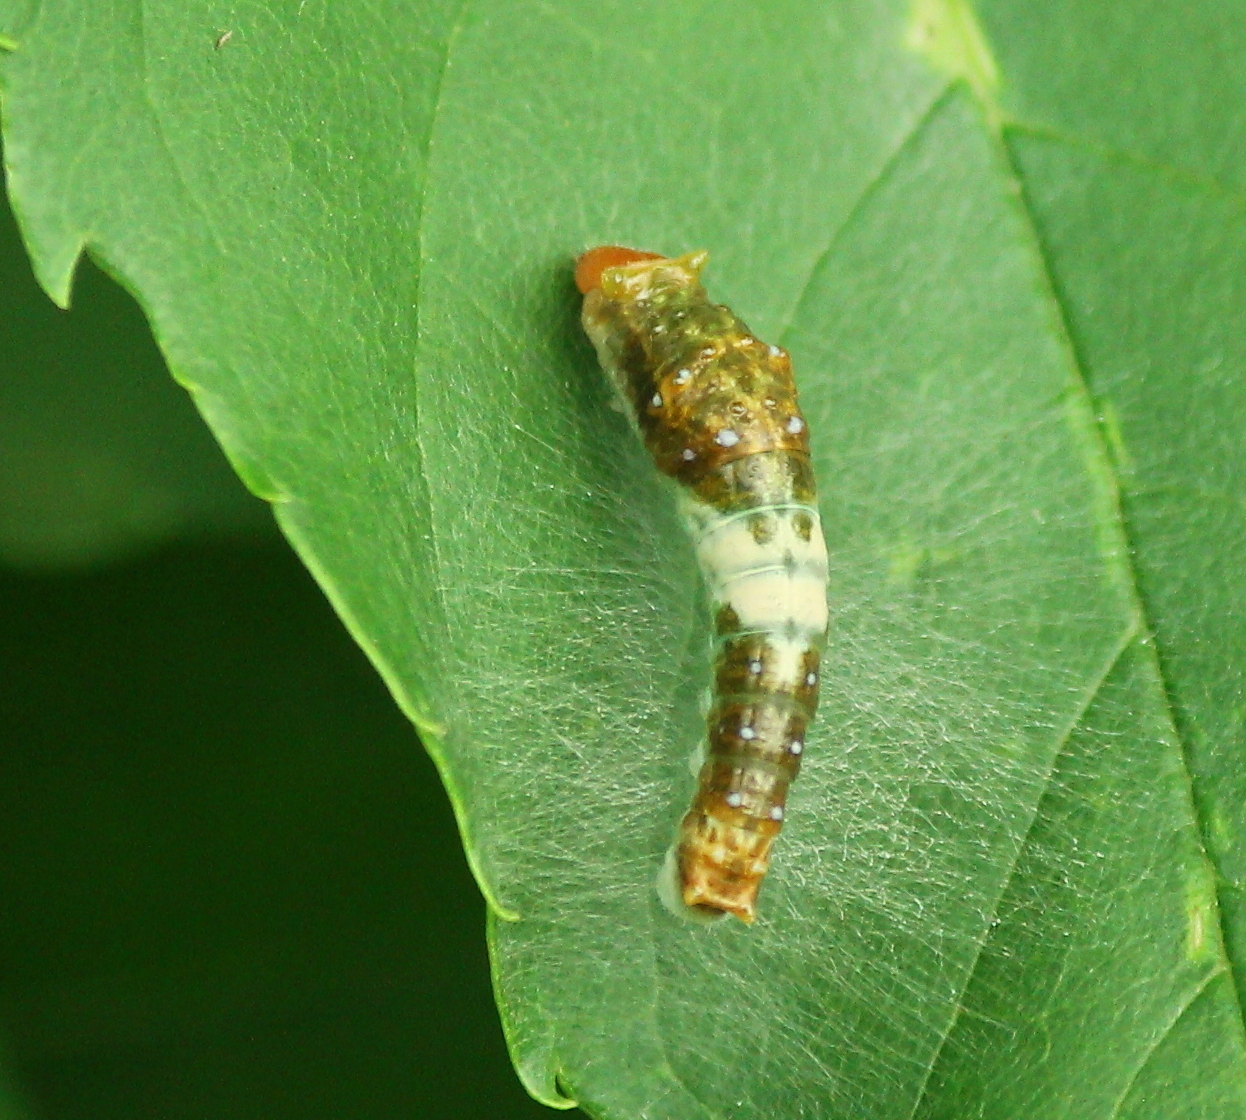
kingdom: Animalia
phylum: Arthropoda
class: Insecta
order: Lepidoptera
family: Papilionidae
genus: Papilio
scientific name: Papilio glaucus
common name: Tiger swallowtail
